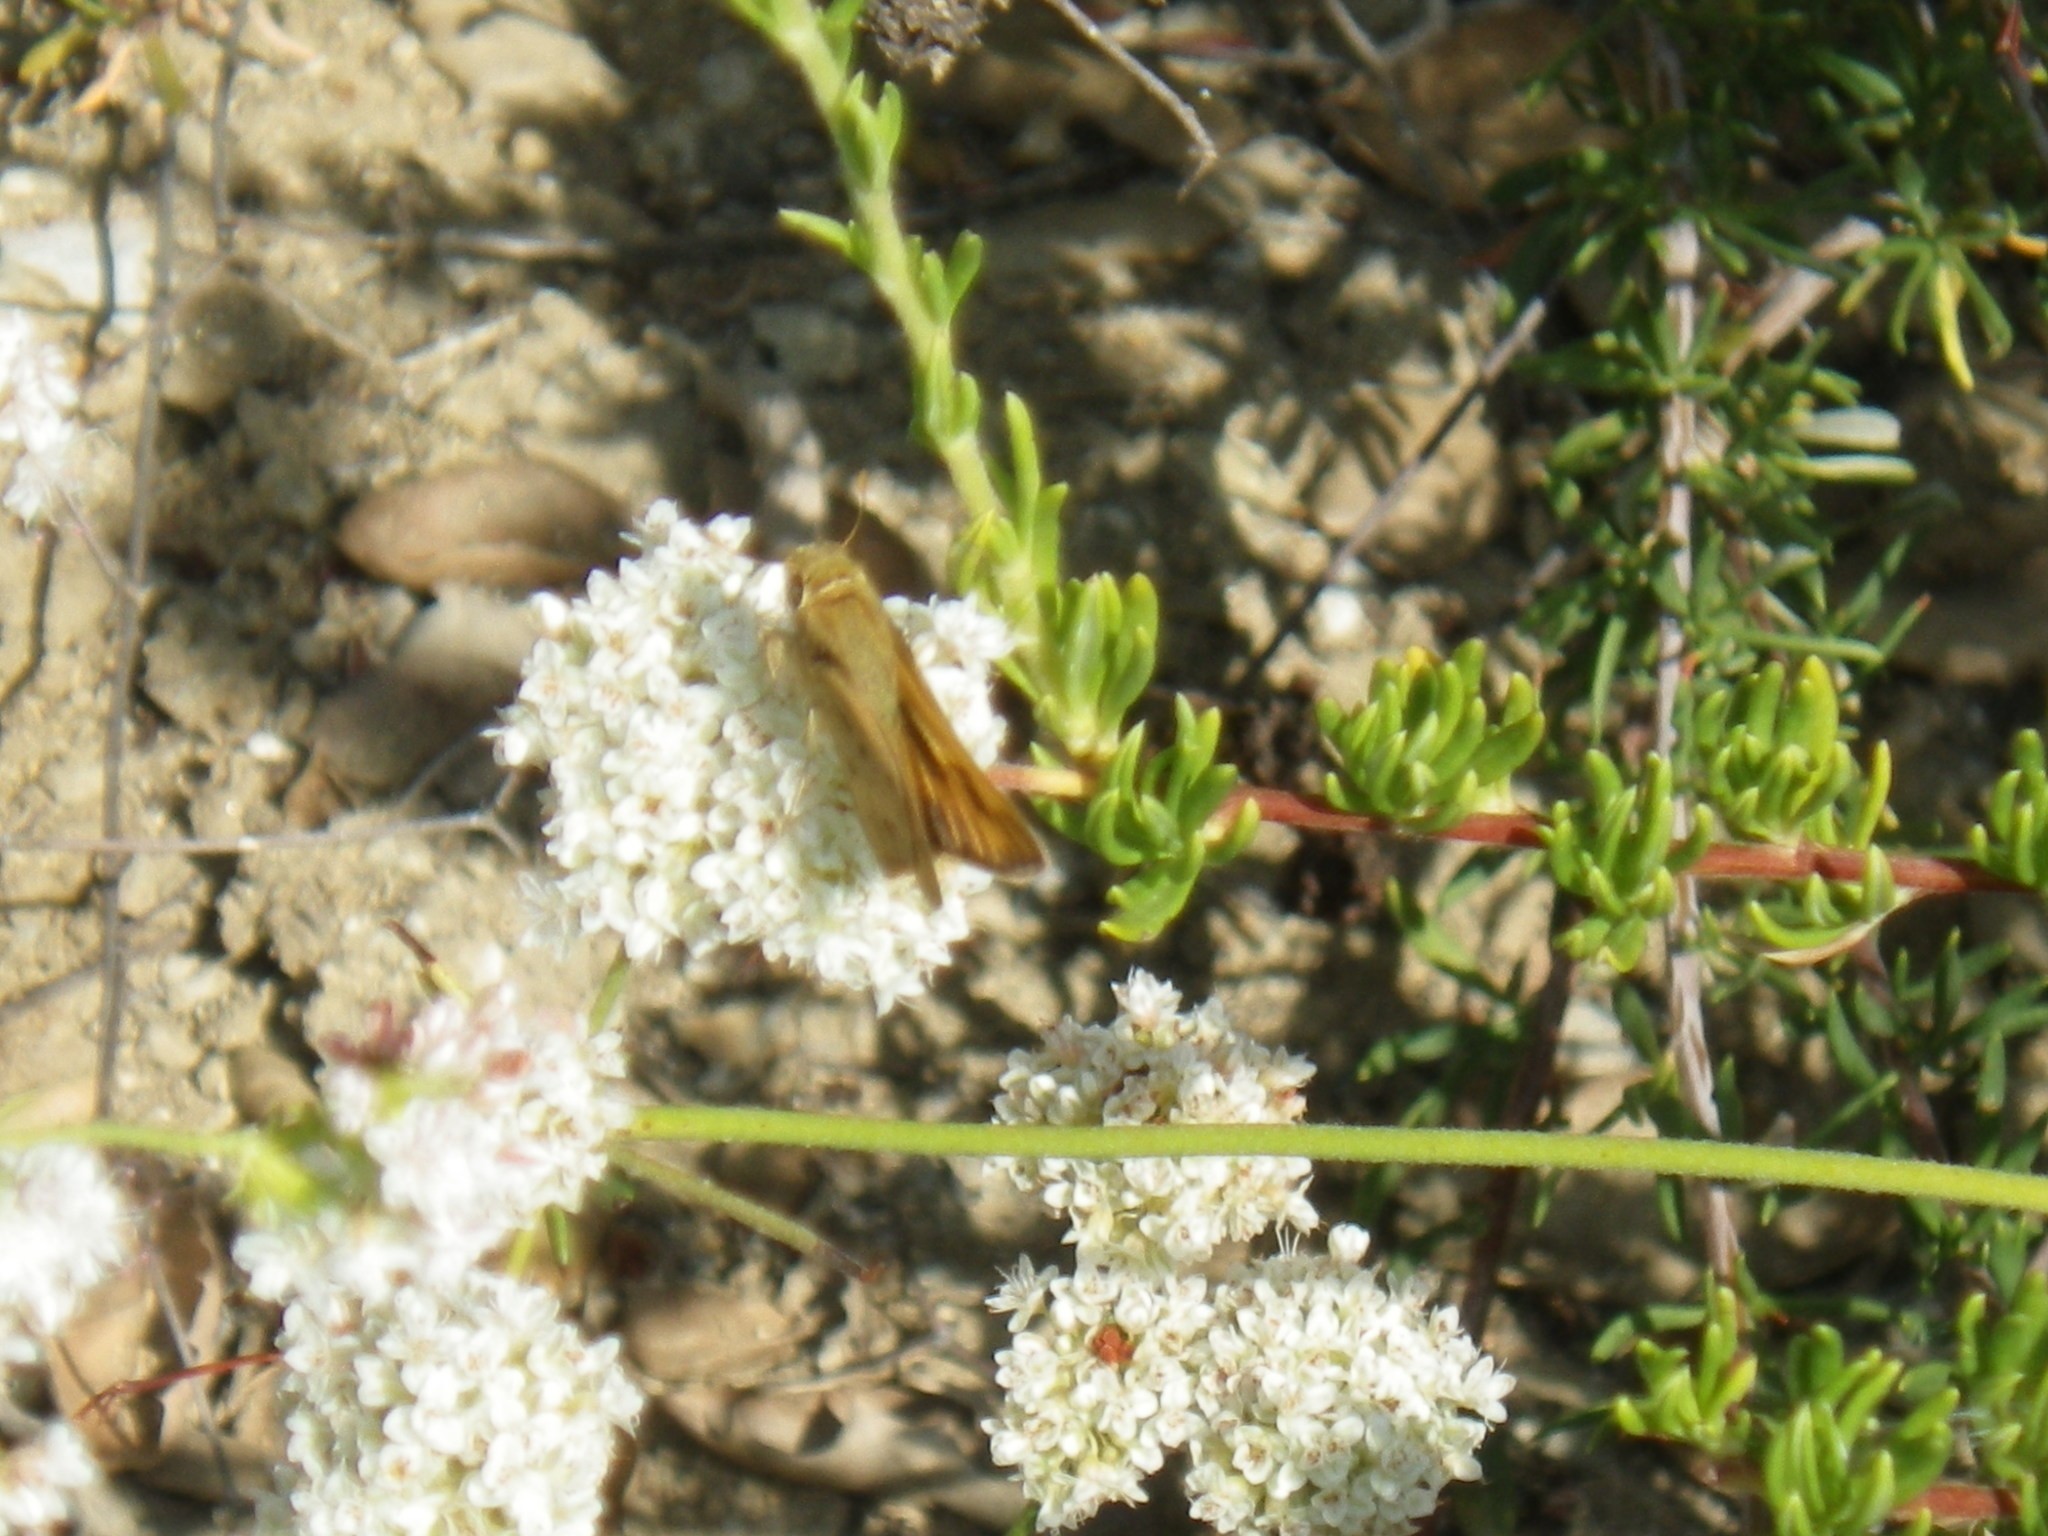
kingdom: Animalia
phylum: Arthropoda
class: Insecta
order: Lepidoptera
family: Hesperiidae
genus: Hylephila
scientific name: Hylephila phyleus
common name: Fiery skipper
